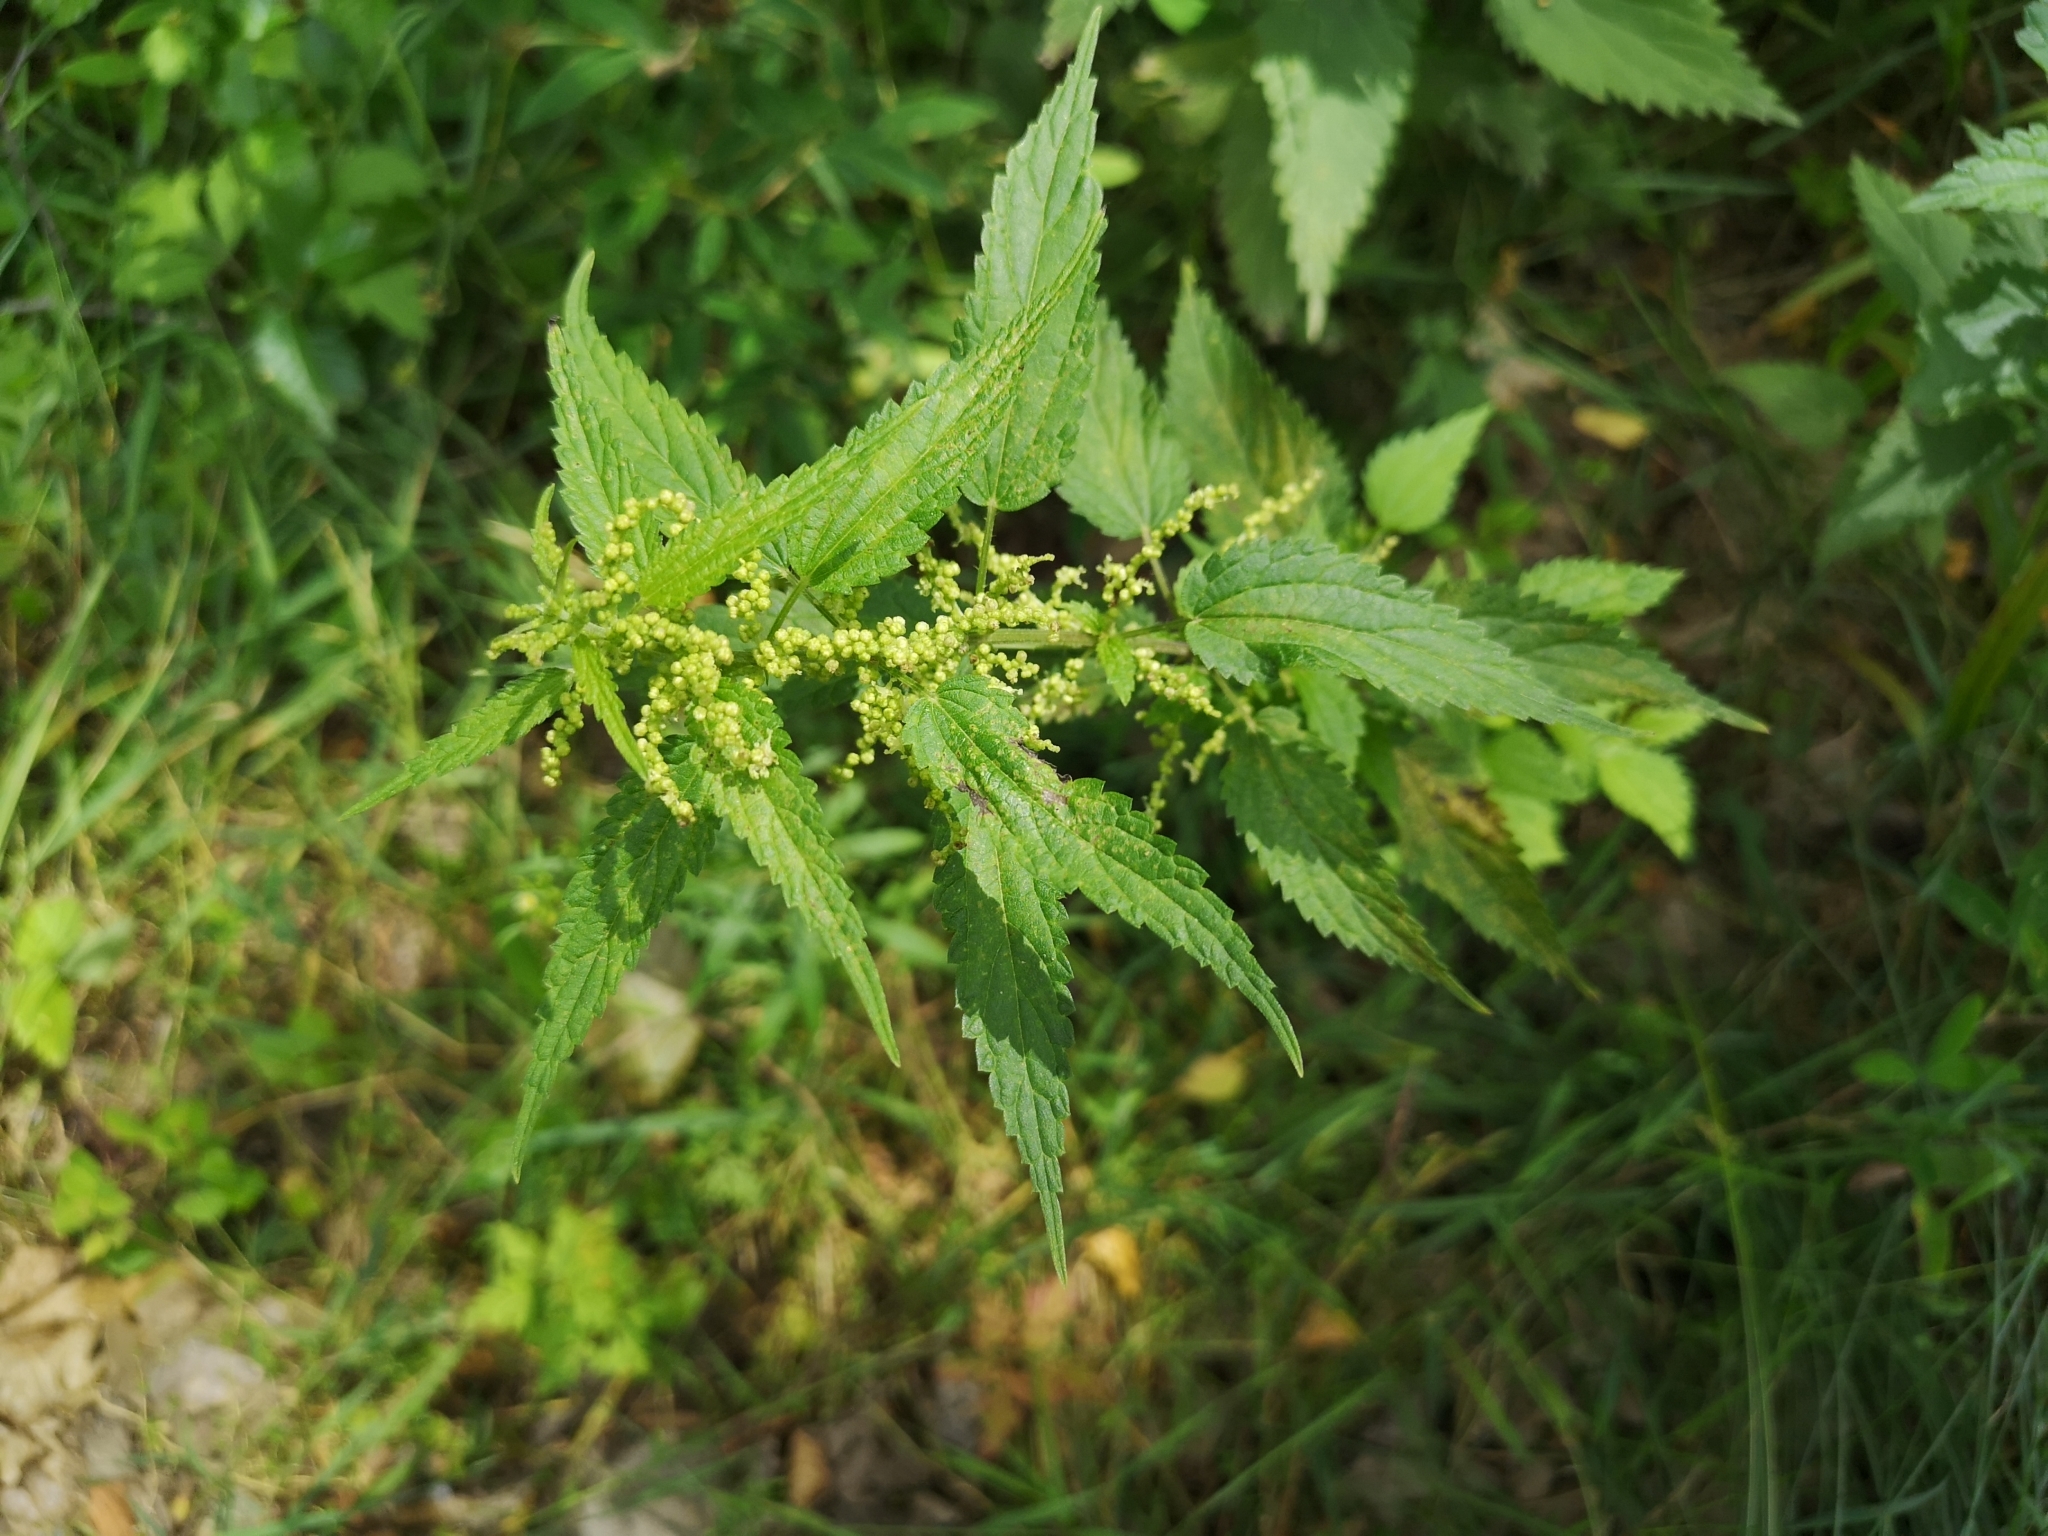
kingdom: Plantae
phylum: Tracheophyta
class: Magnoliopsida
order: Rosales
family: Urticaceae
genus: Urtica
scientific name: Urtica galeopsifolia
